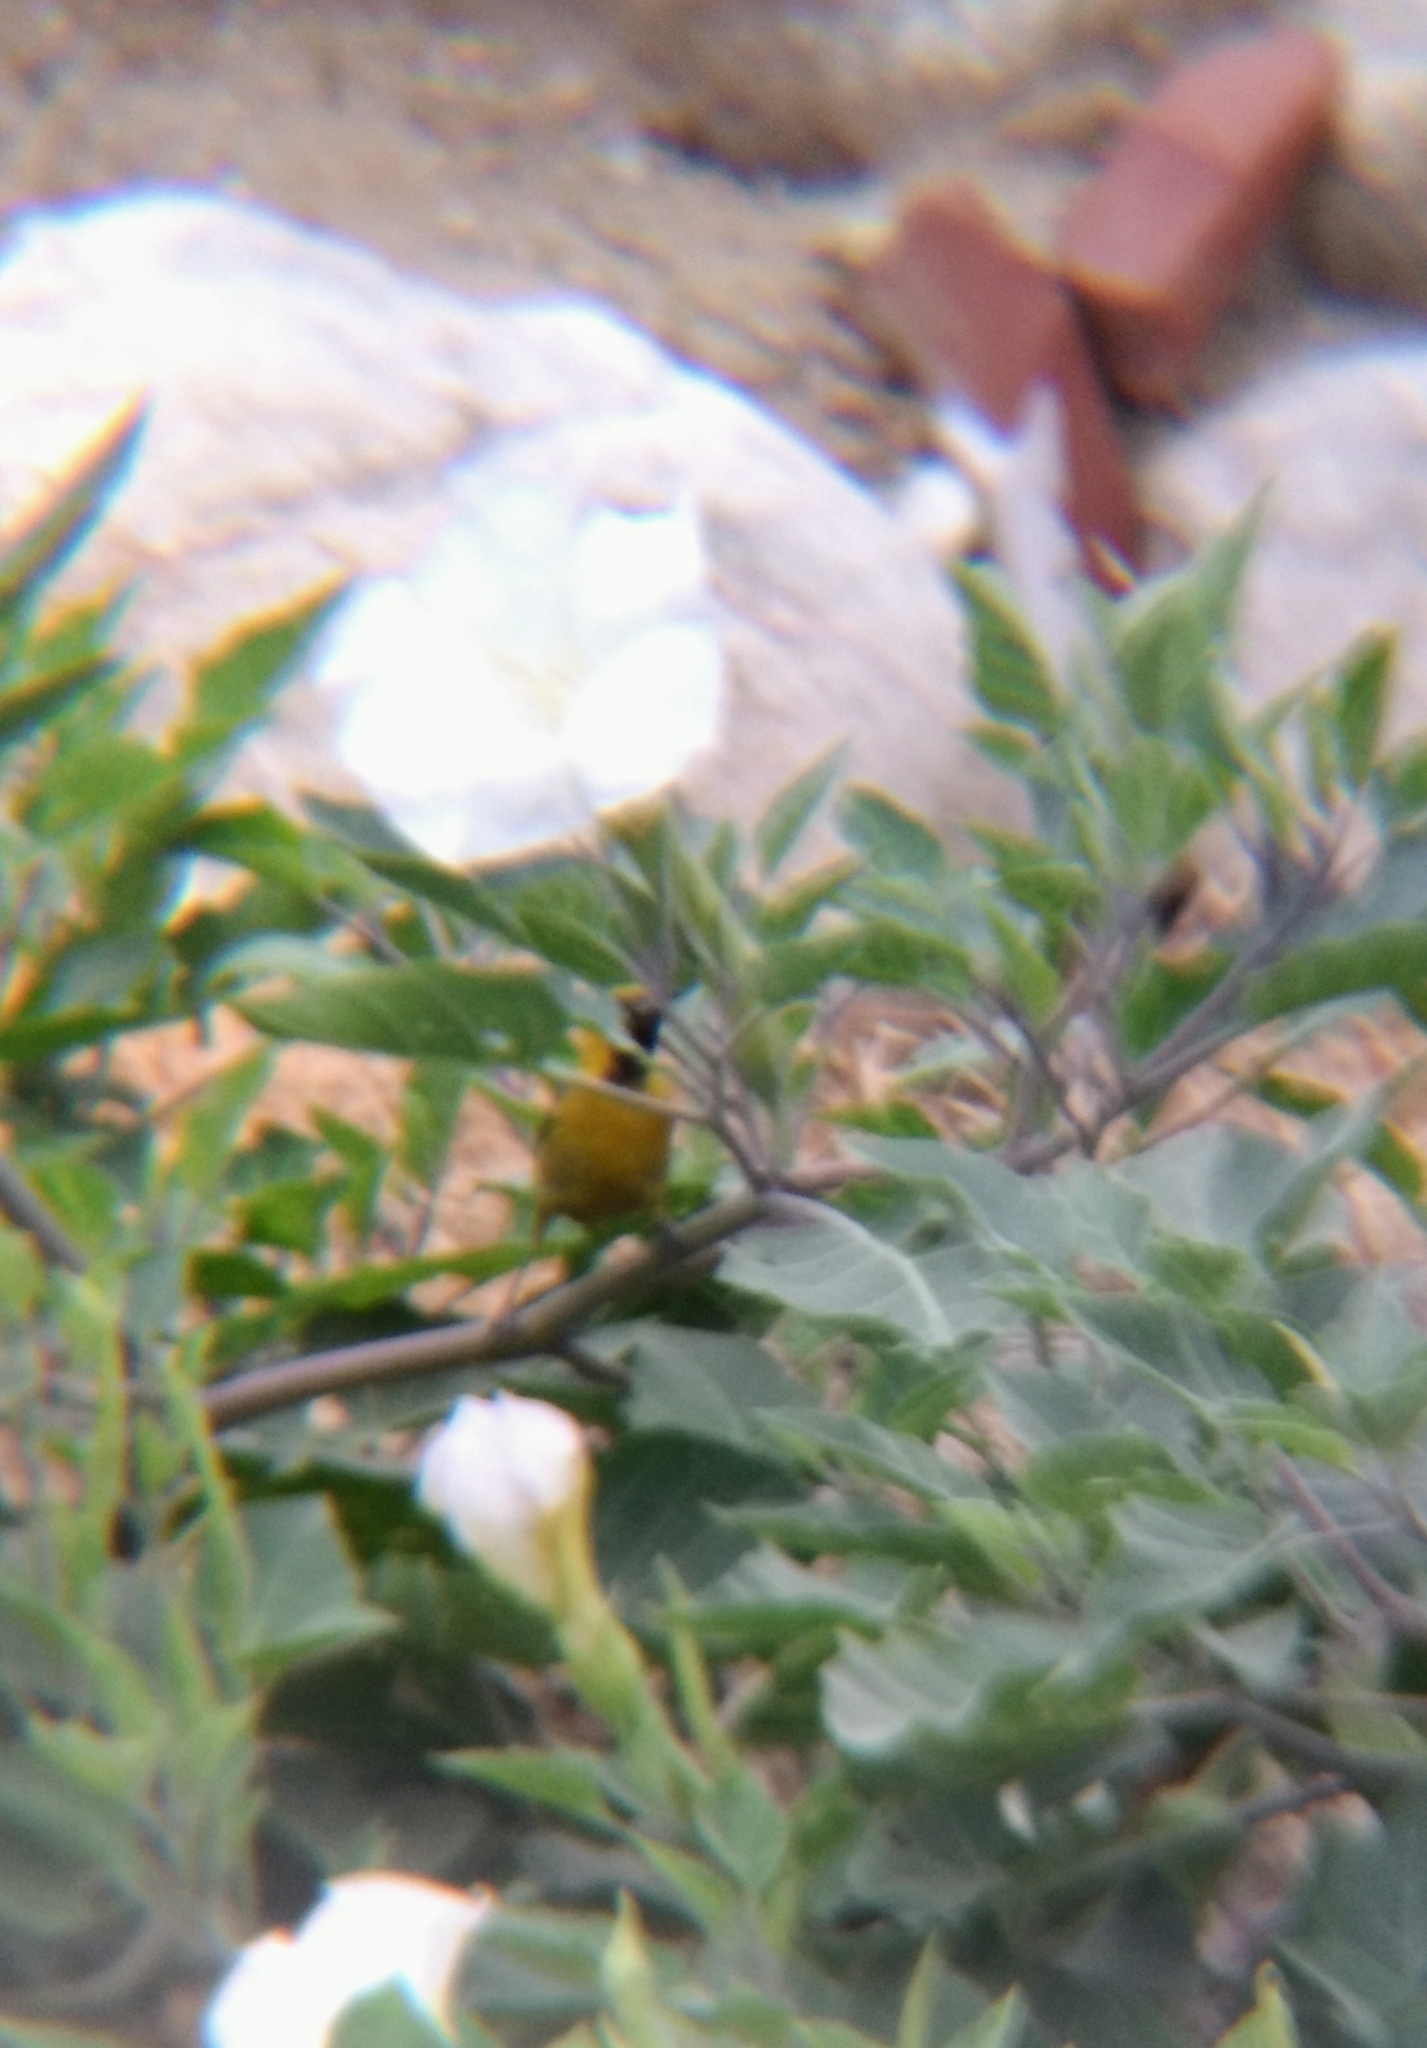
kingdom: Animalia
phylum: Chordata
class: Aves
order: Passeriformes
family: Icteridae
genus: Icterus
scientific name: Icterus cucullatus
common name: Hooded oriole
